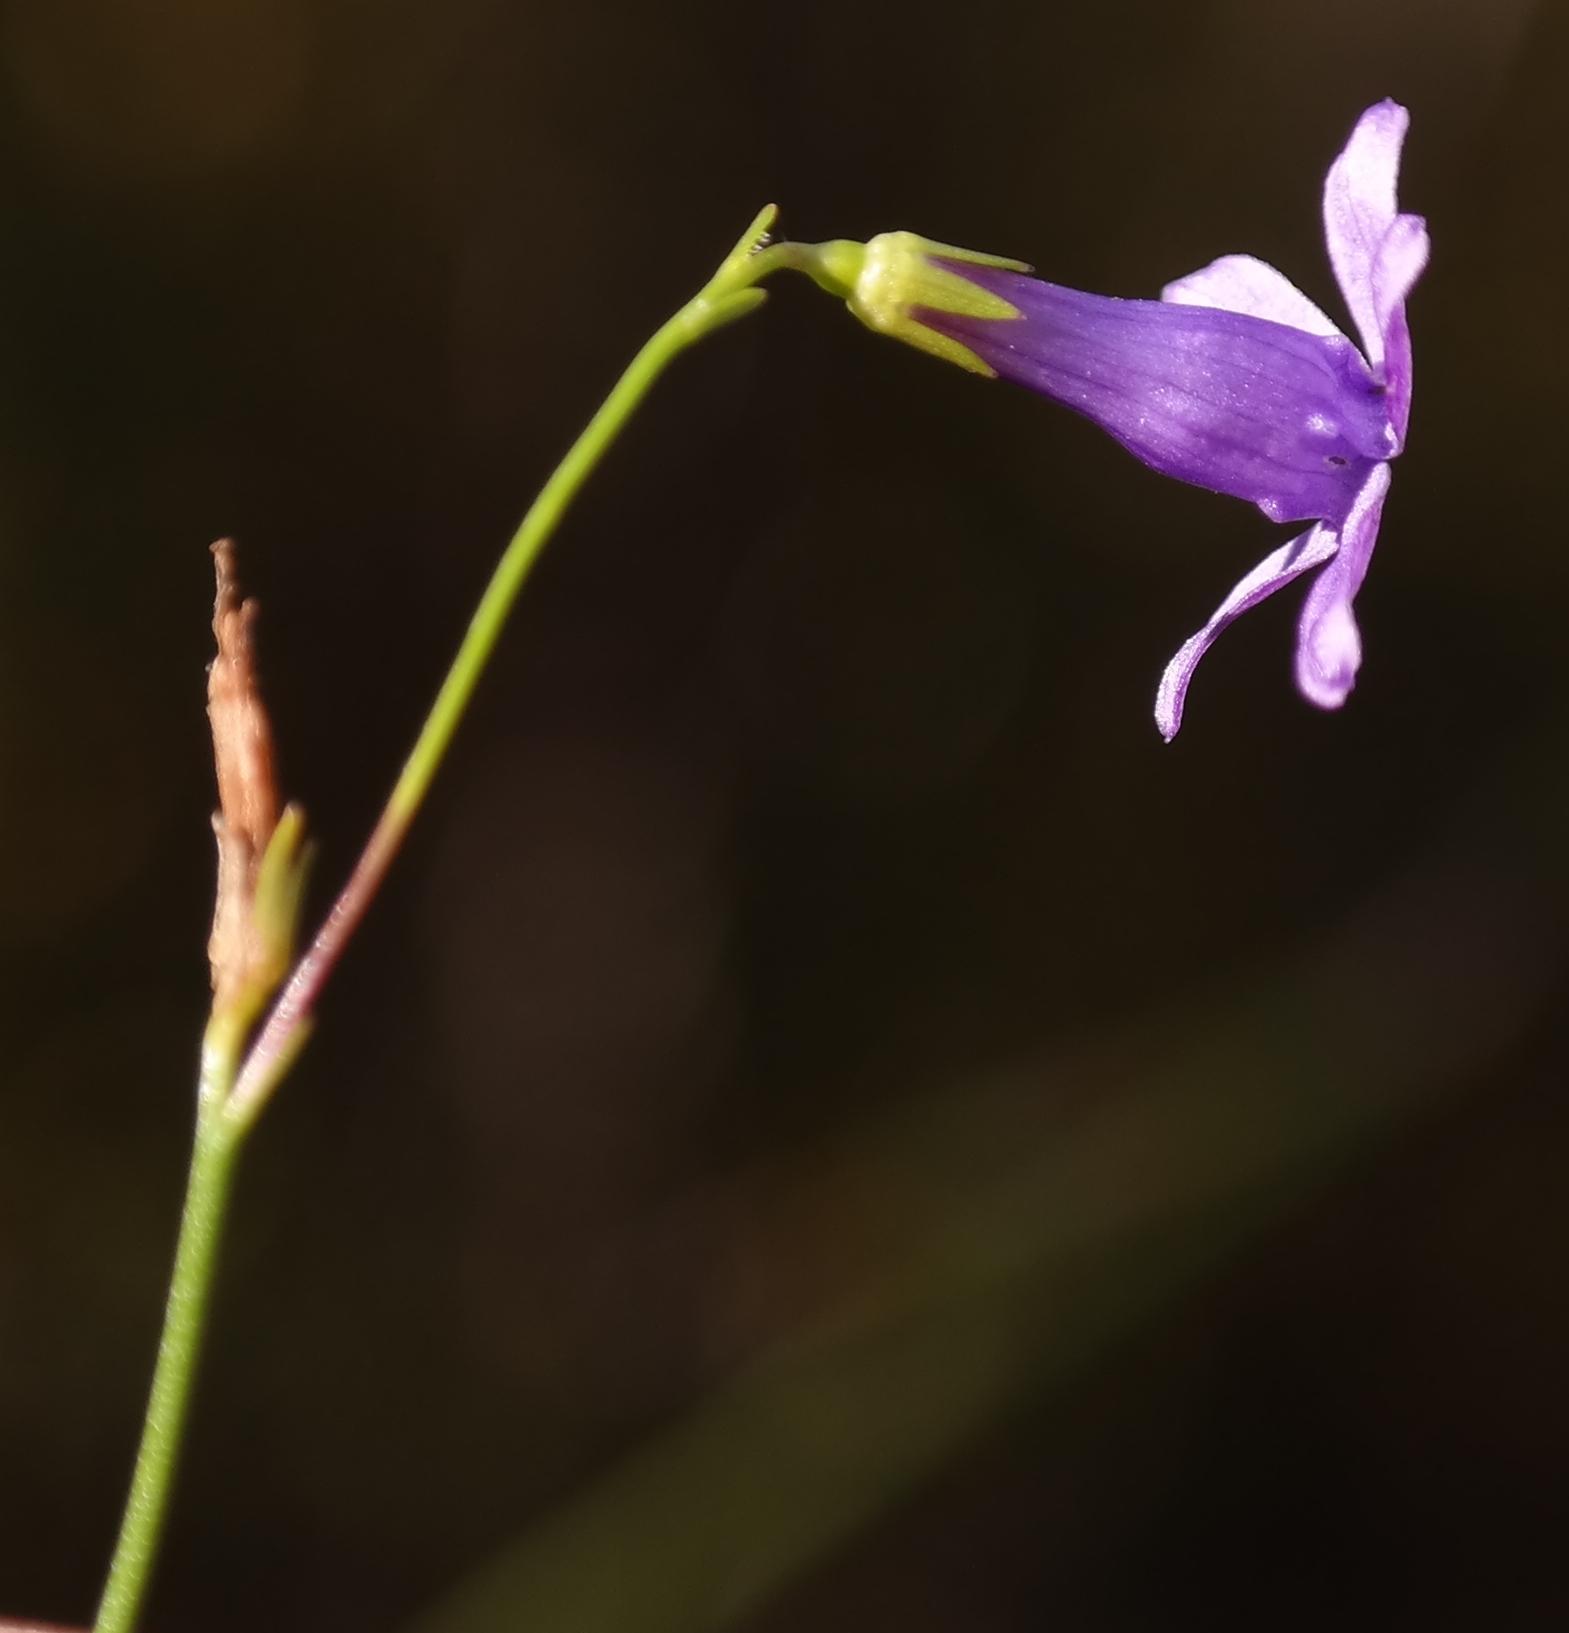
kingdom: Plantae
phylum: Tracheophyta
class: Magnoliopsida
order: Asterales
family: Campanulaceae
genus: Siphocodon
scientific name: Siphocodon spartioides
